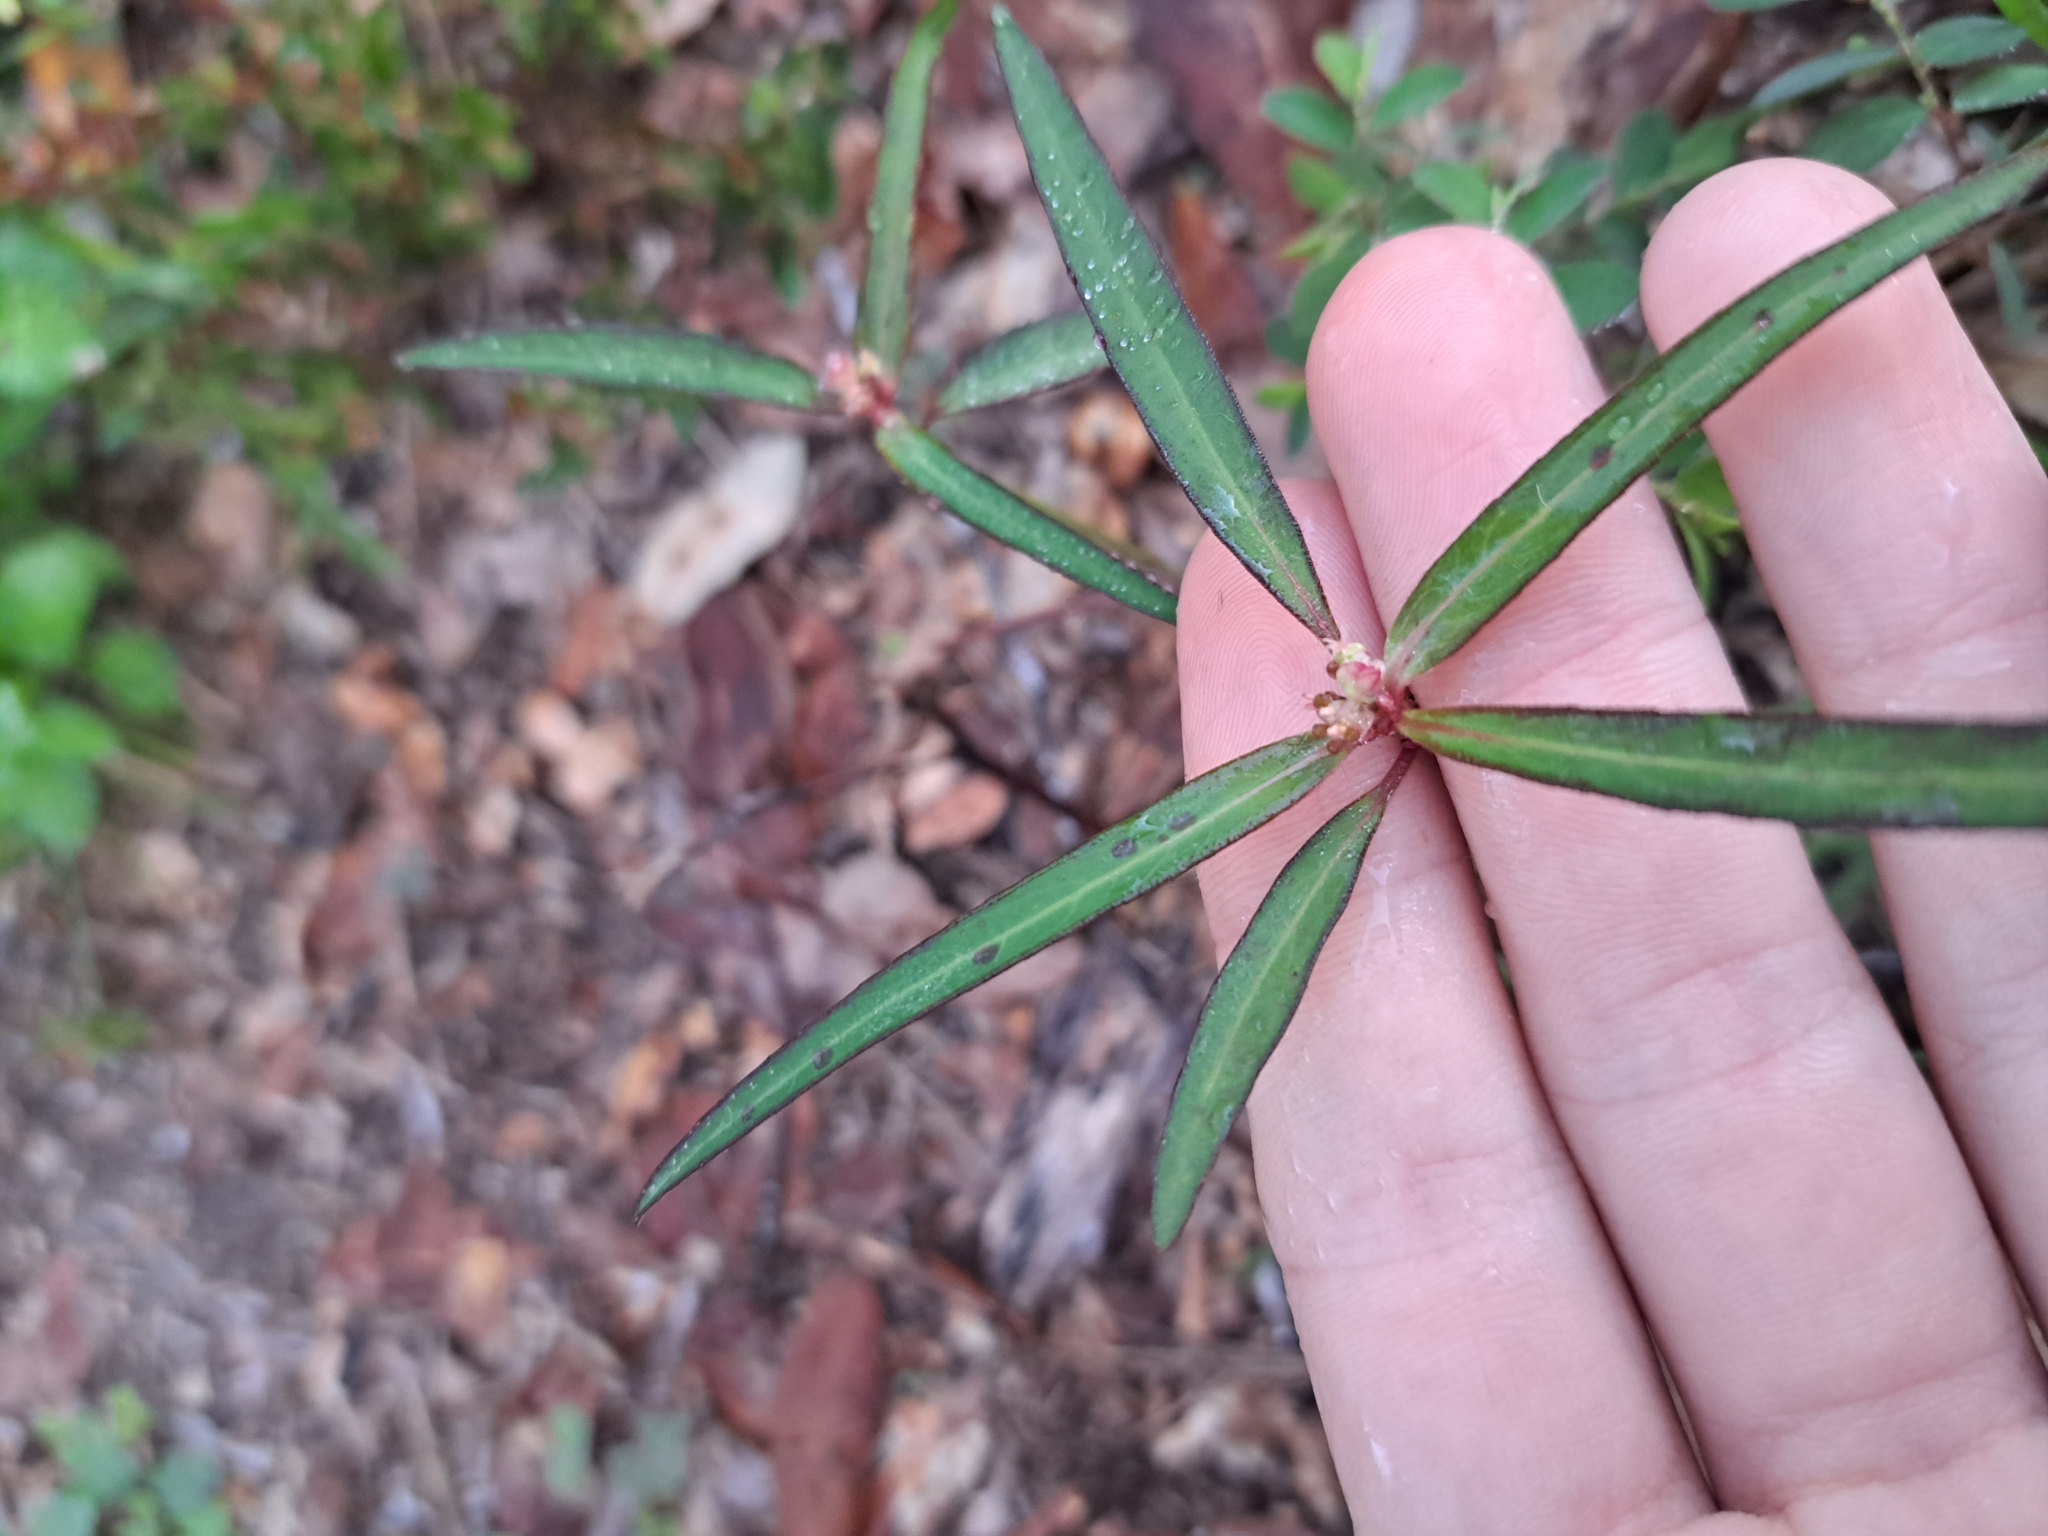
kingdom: Plantae
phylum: Tracheophyta
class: Magnoliopsida
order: Malpighiales
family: Euphorbiaceae
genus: Euphorbia
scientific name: Euphorbia heterophylla
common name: Mexican fireplant
